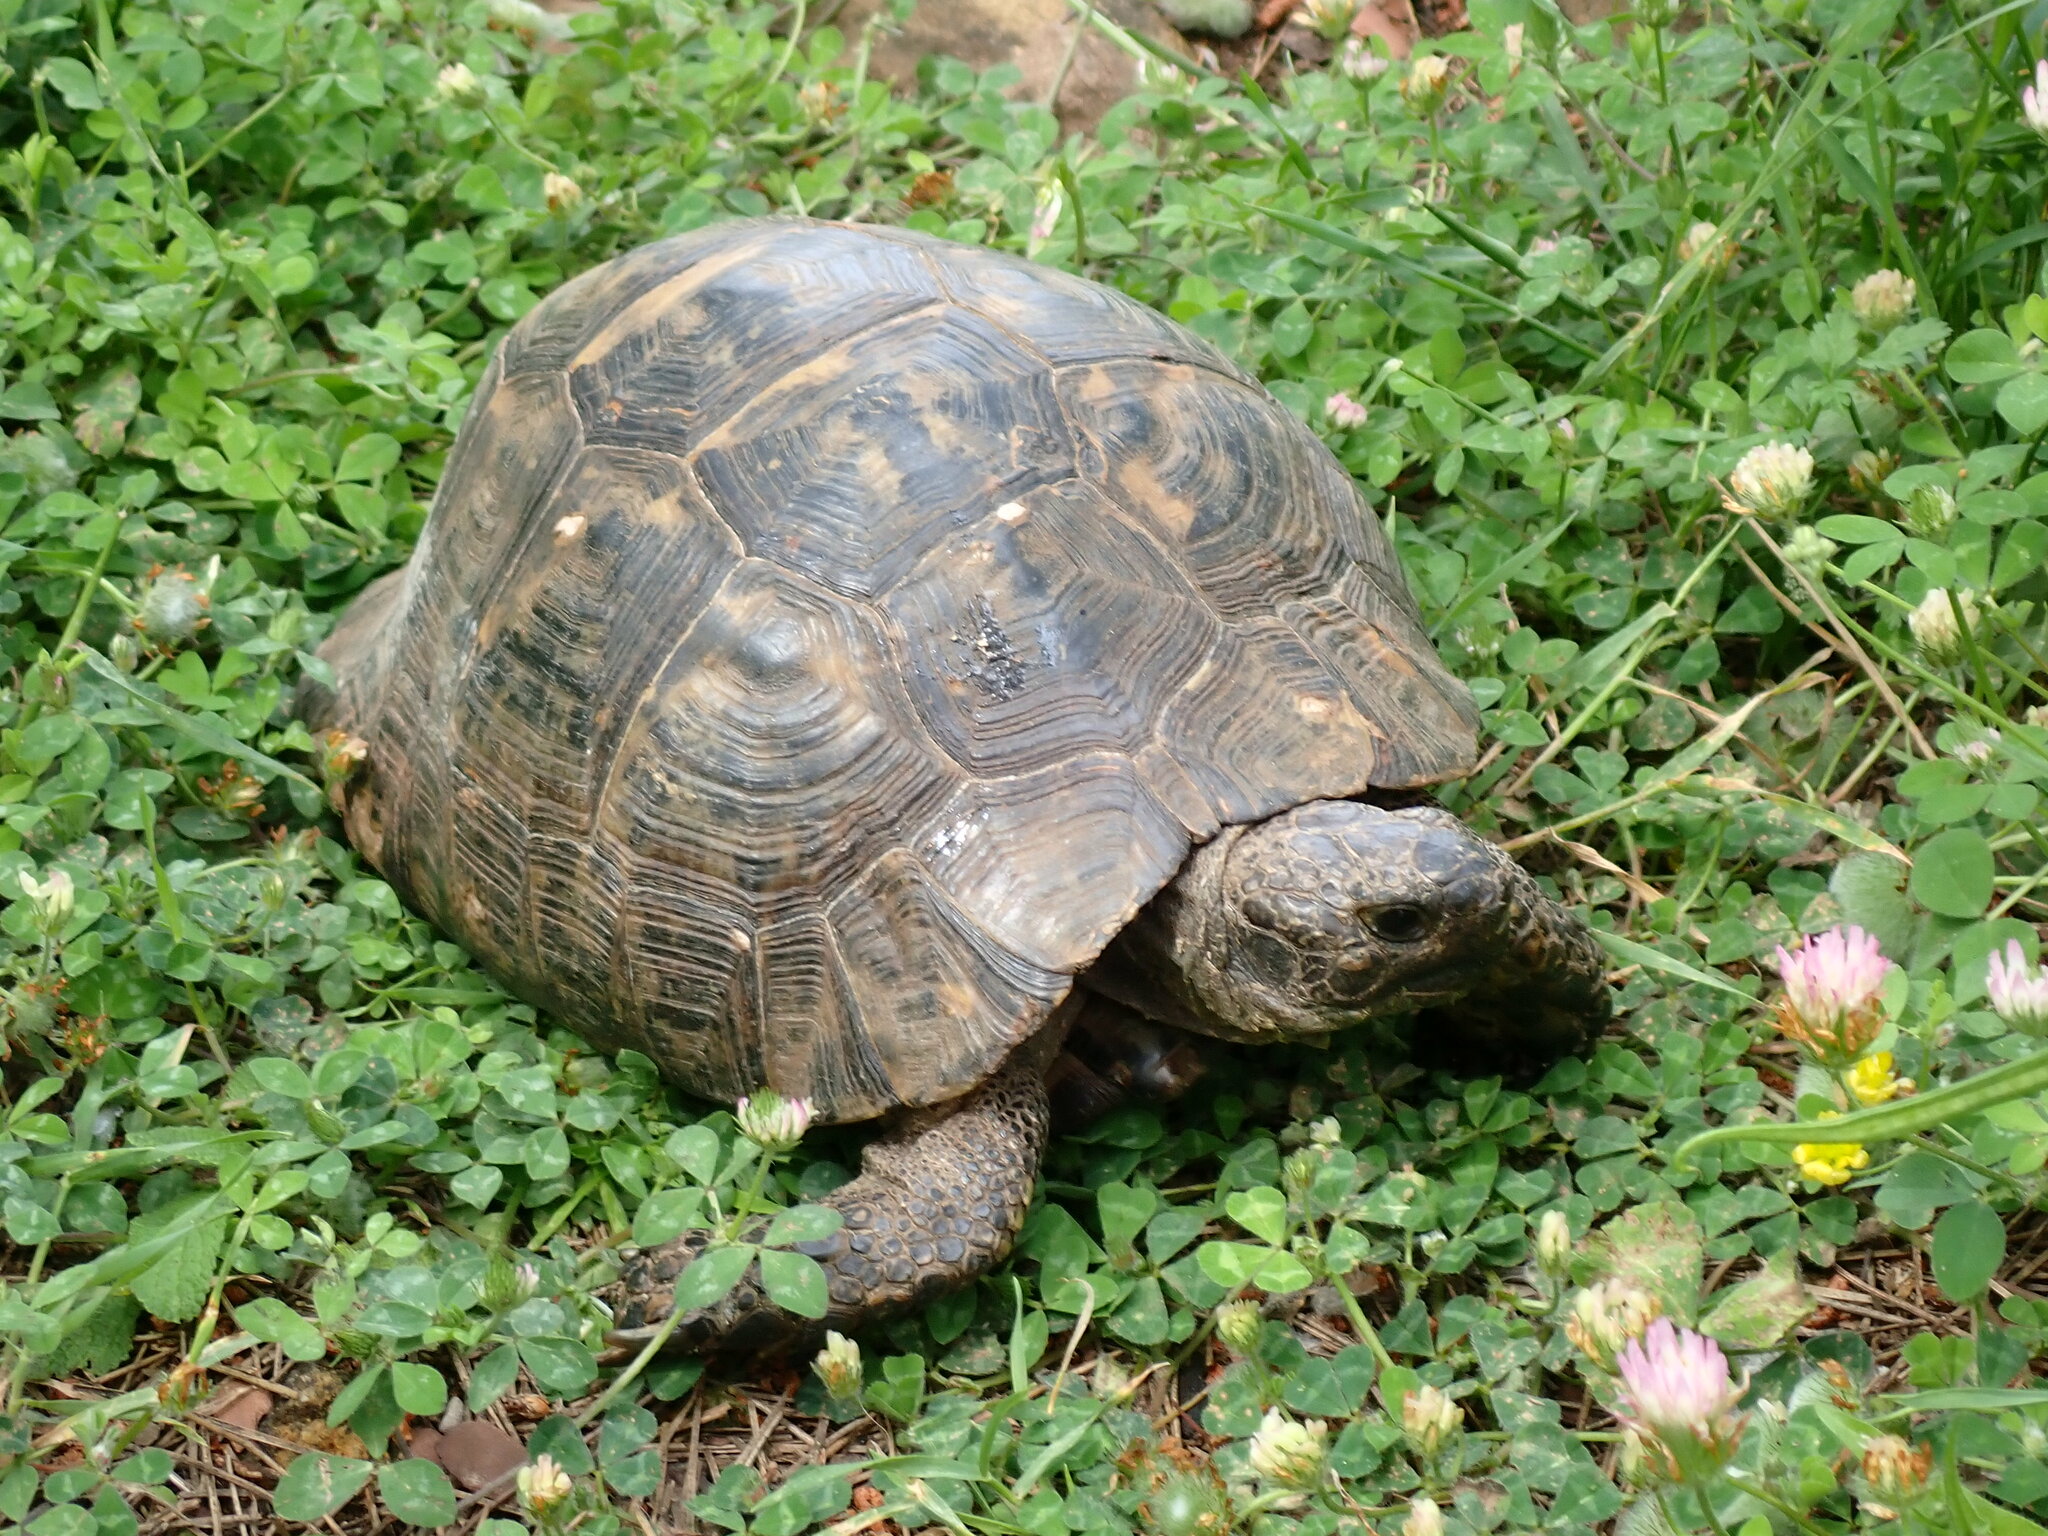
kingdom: Animalia
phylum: Chordata
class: Testudines
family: Testudinidae
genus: Testudo
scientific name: Testudo graeca
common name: Common tortoise
